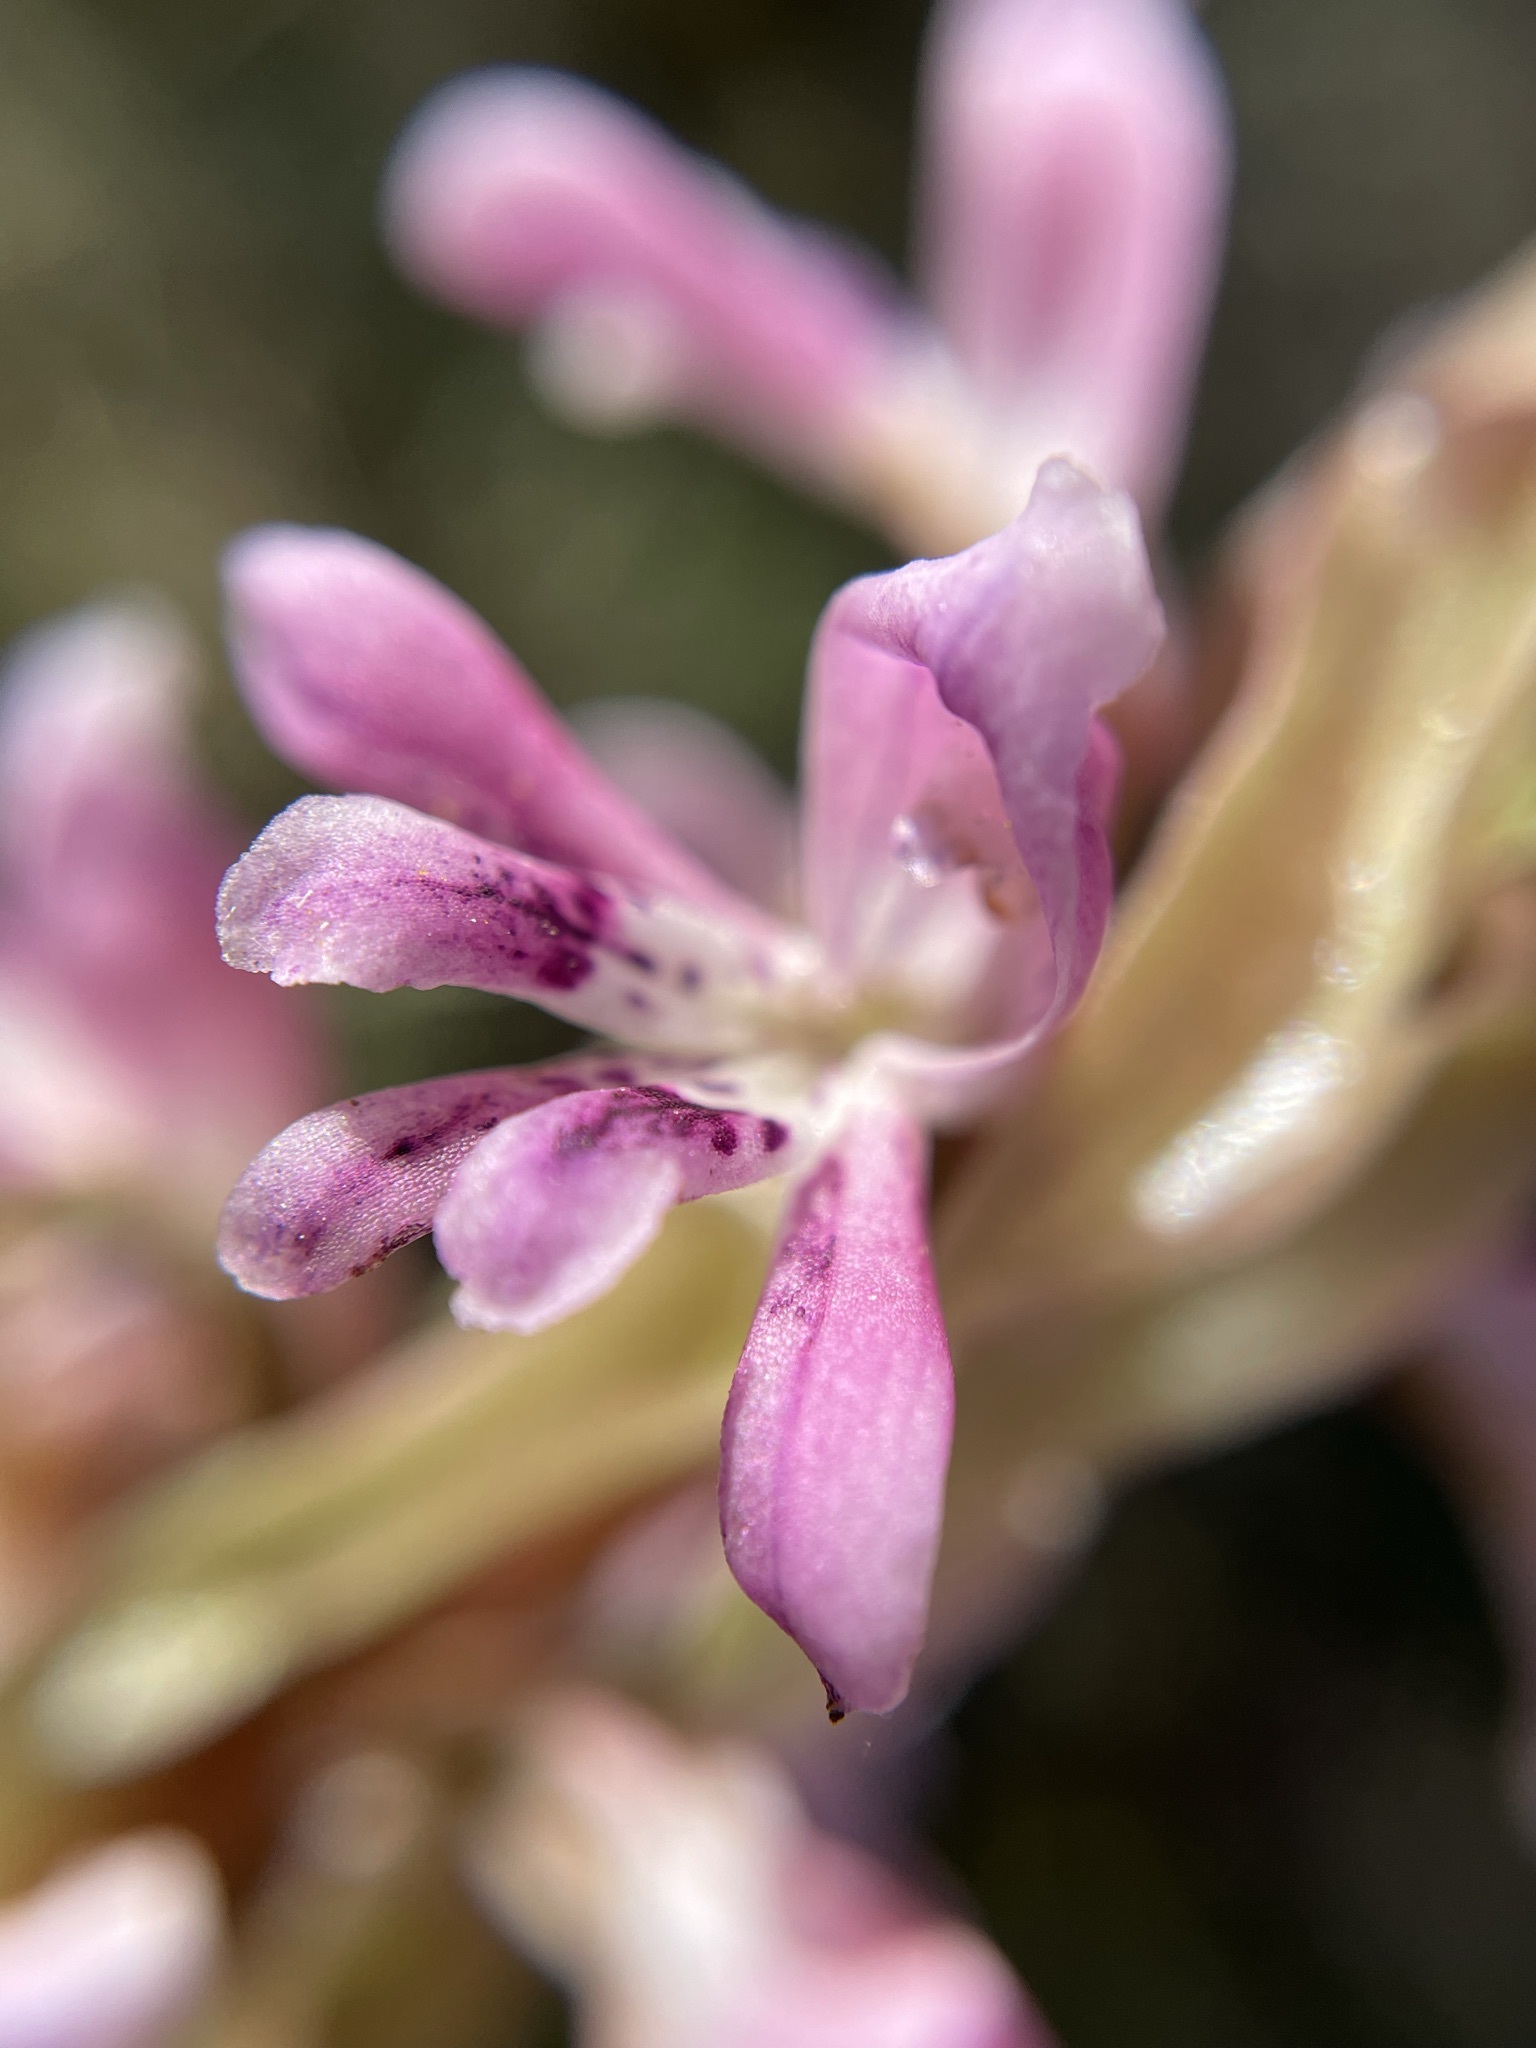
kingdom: Plantae
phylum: Tracheophyta
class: Liliopsida
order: Asparagales
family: Orchidaceae
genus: Satyrium
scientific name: Satyrium erectum
